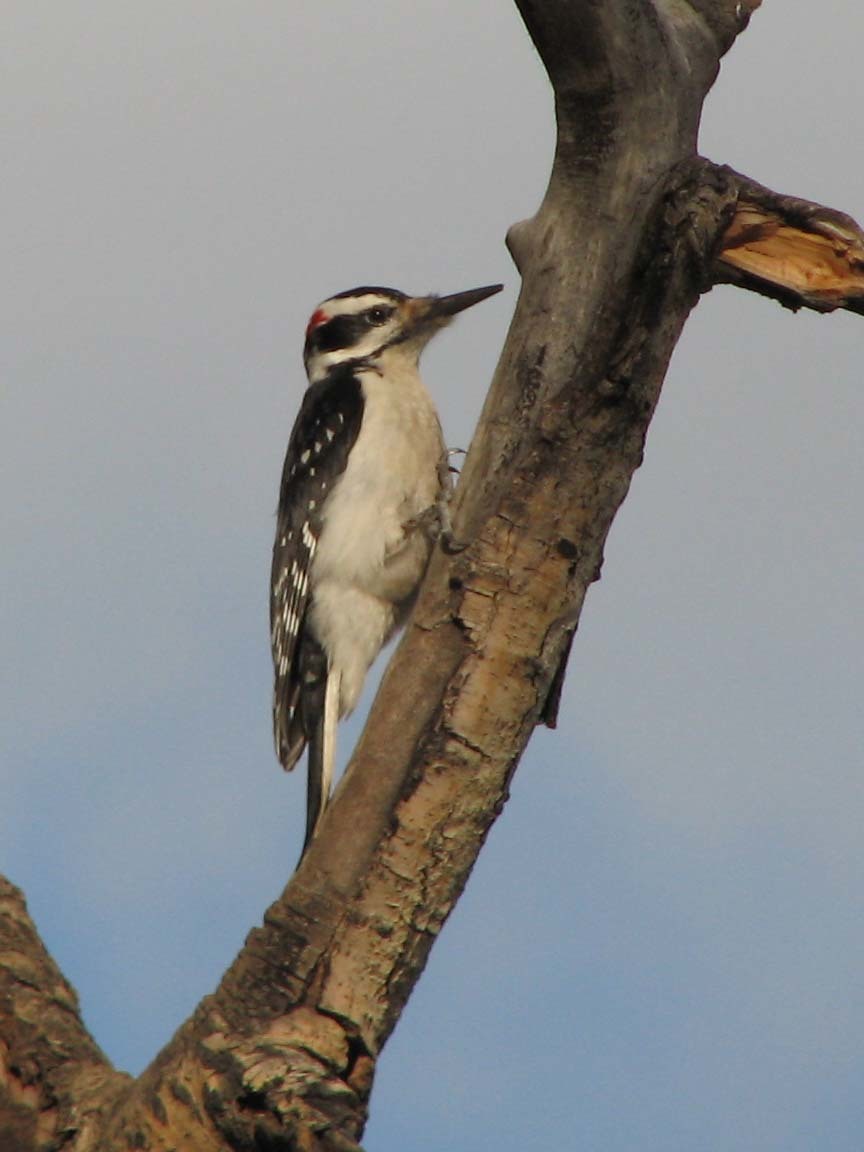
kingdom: Animalia
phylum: Chordata
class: Aves
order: Piciformes
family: Picidae
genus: Leuconotopicus
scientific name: Leuconotopicus villosus
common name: Hairy woodpecker
